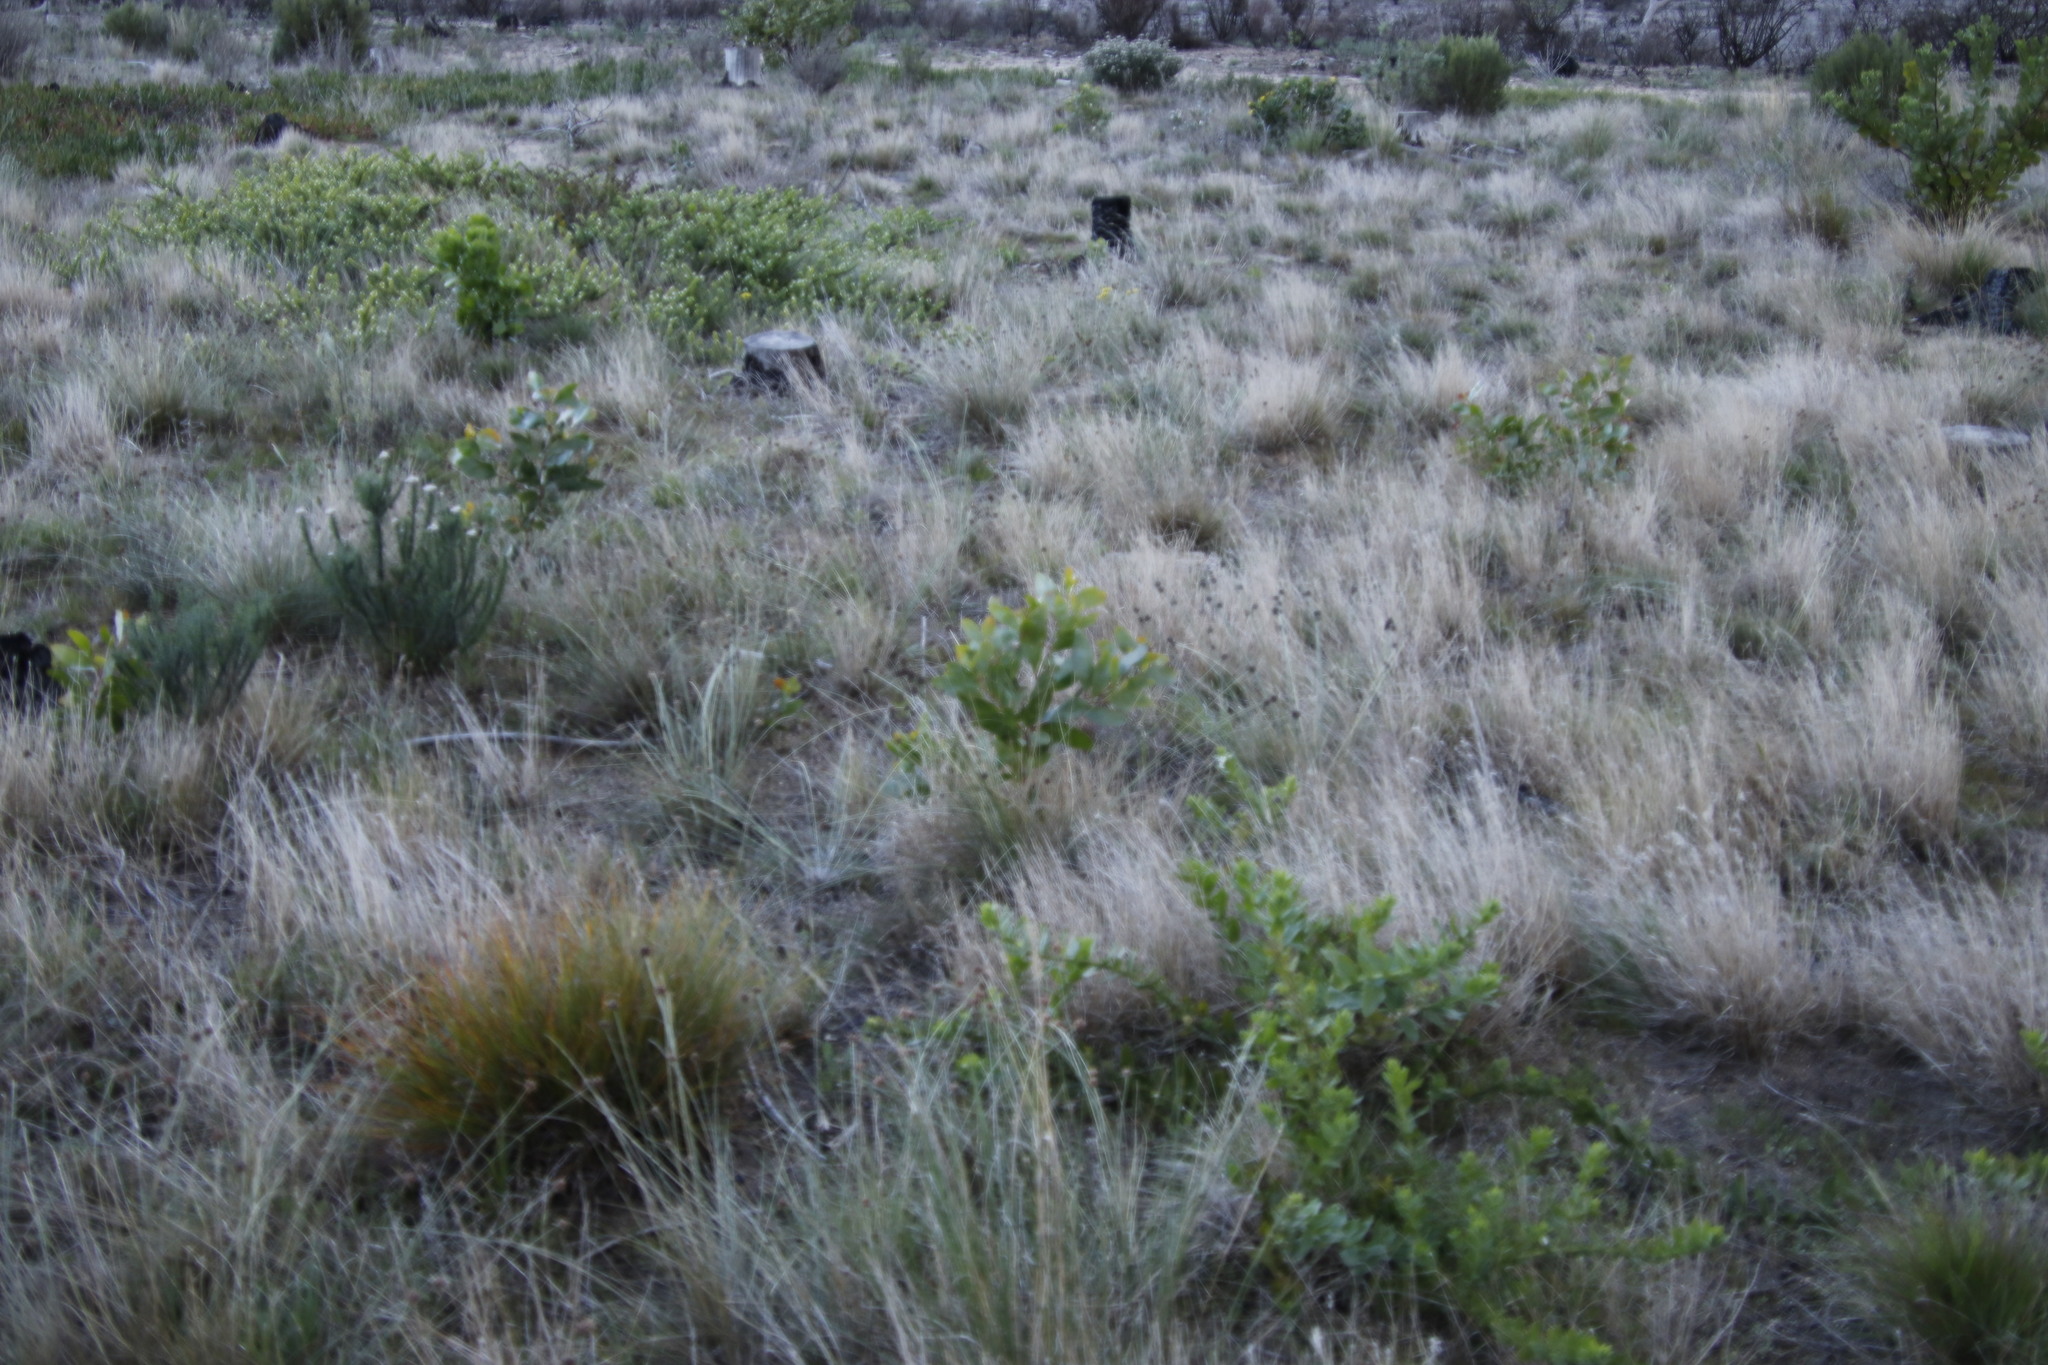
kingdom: Plantae
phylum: Tracheophyta
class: Magnoliopsida
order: Fabales
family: Fabaceae
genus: Acacia
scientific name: Acacia pycnantha
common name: Golden wattle
